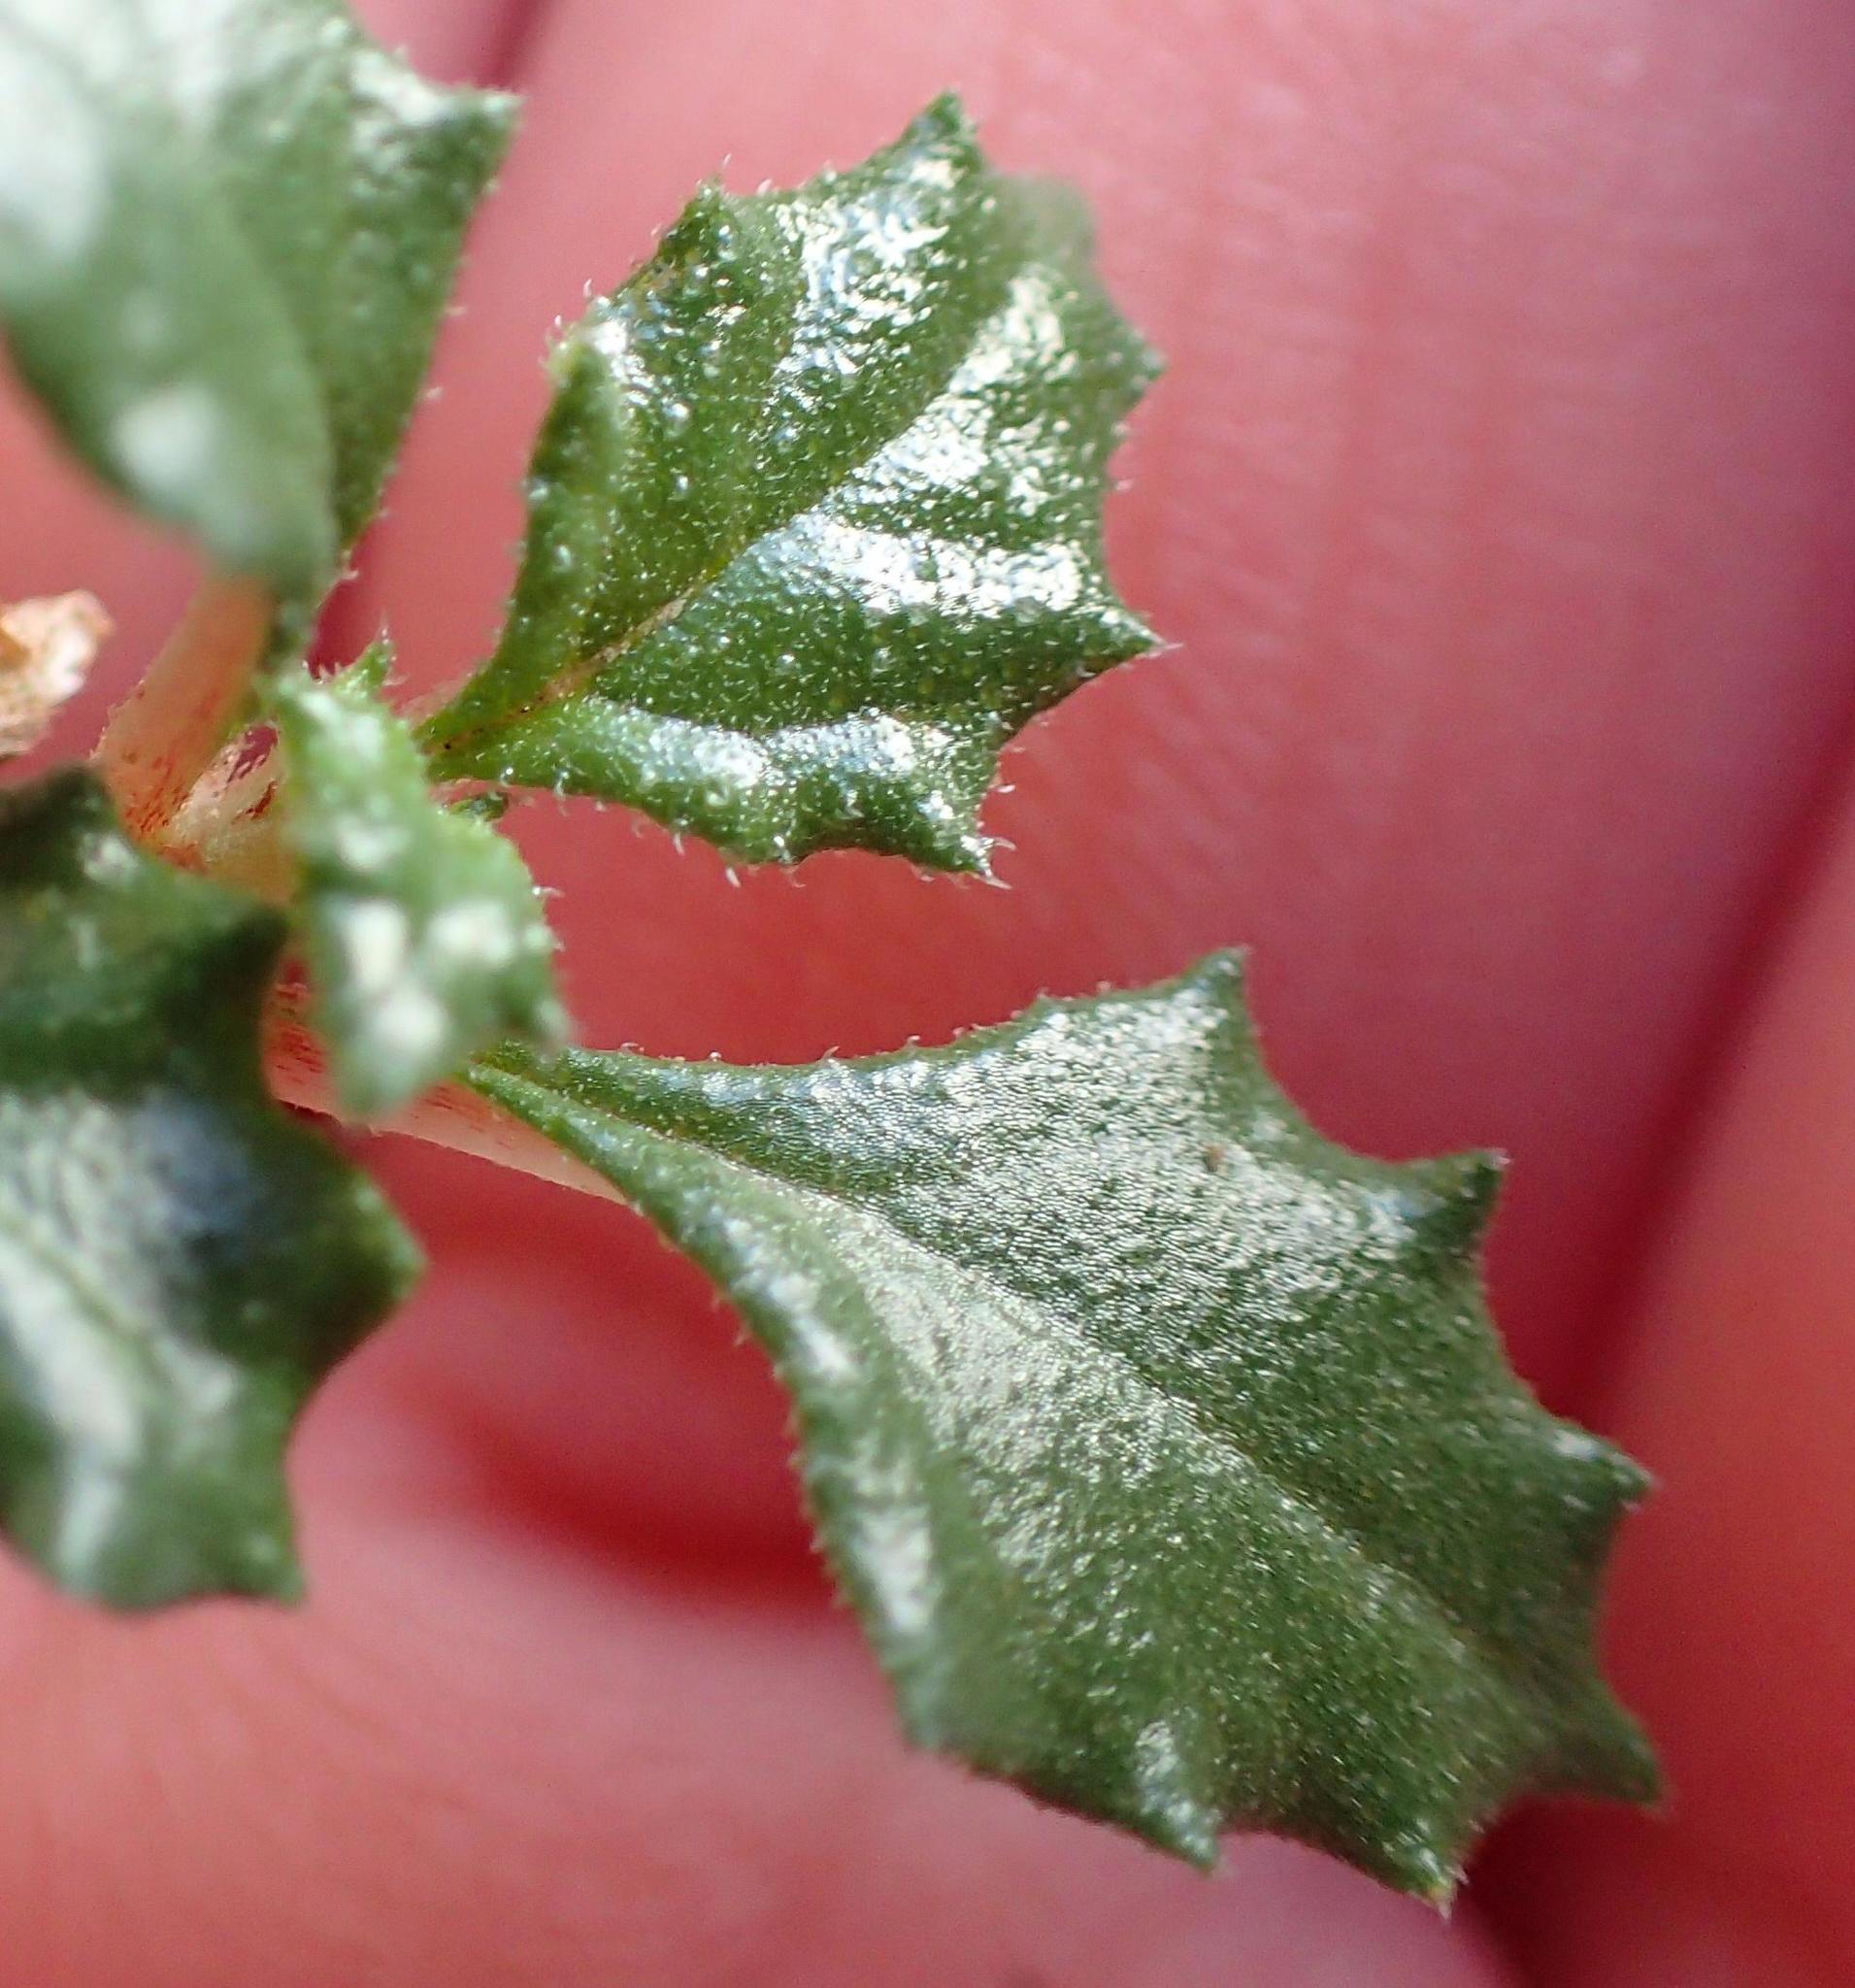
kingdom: Plantae
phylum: Tracheophyta
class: Magnoliopsida
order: Rosales
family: Urticaceae
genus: Forsskaolea
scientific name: Forsskaolea candida
